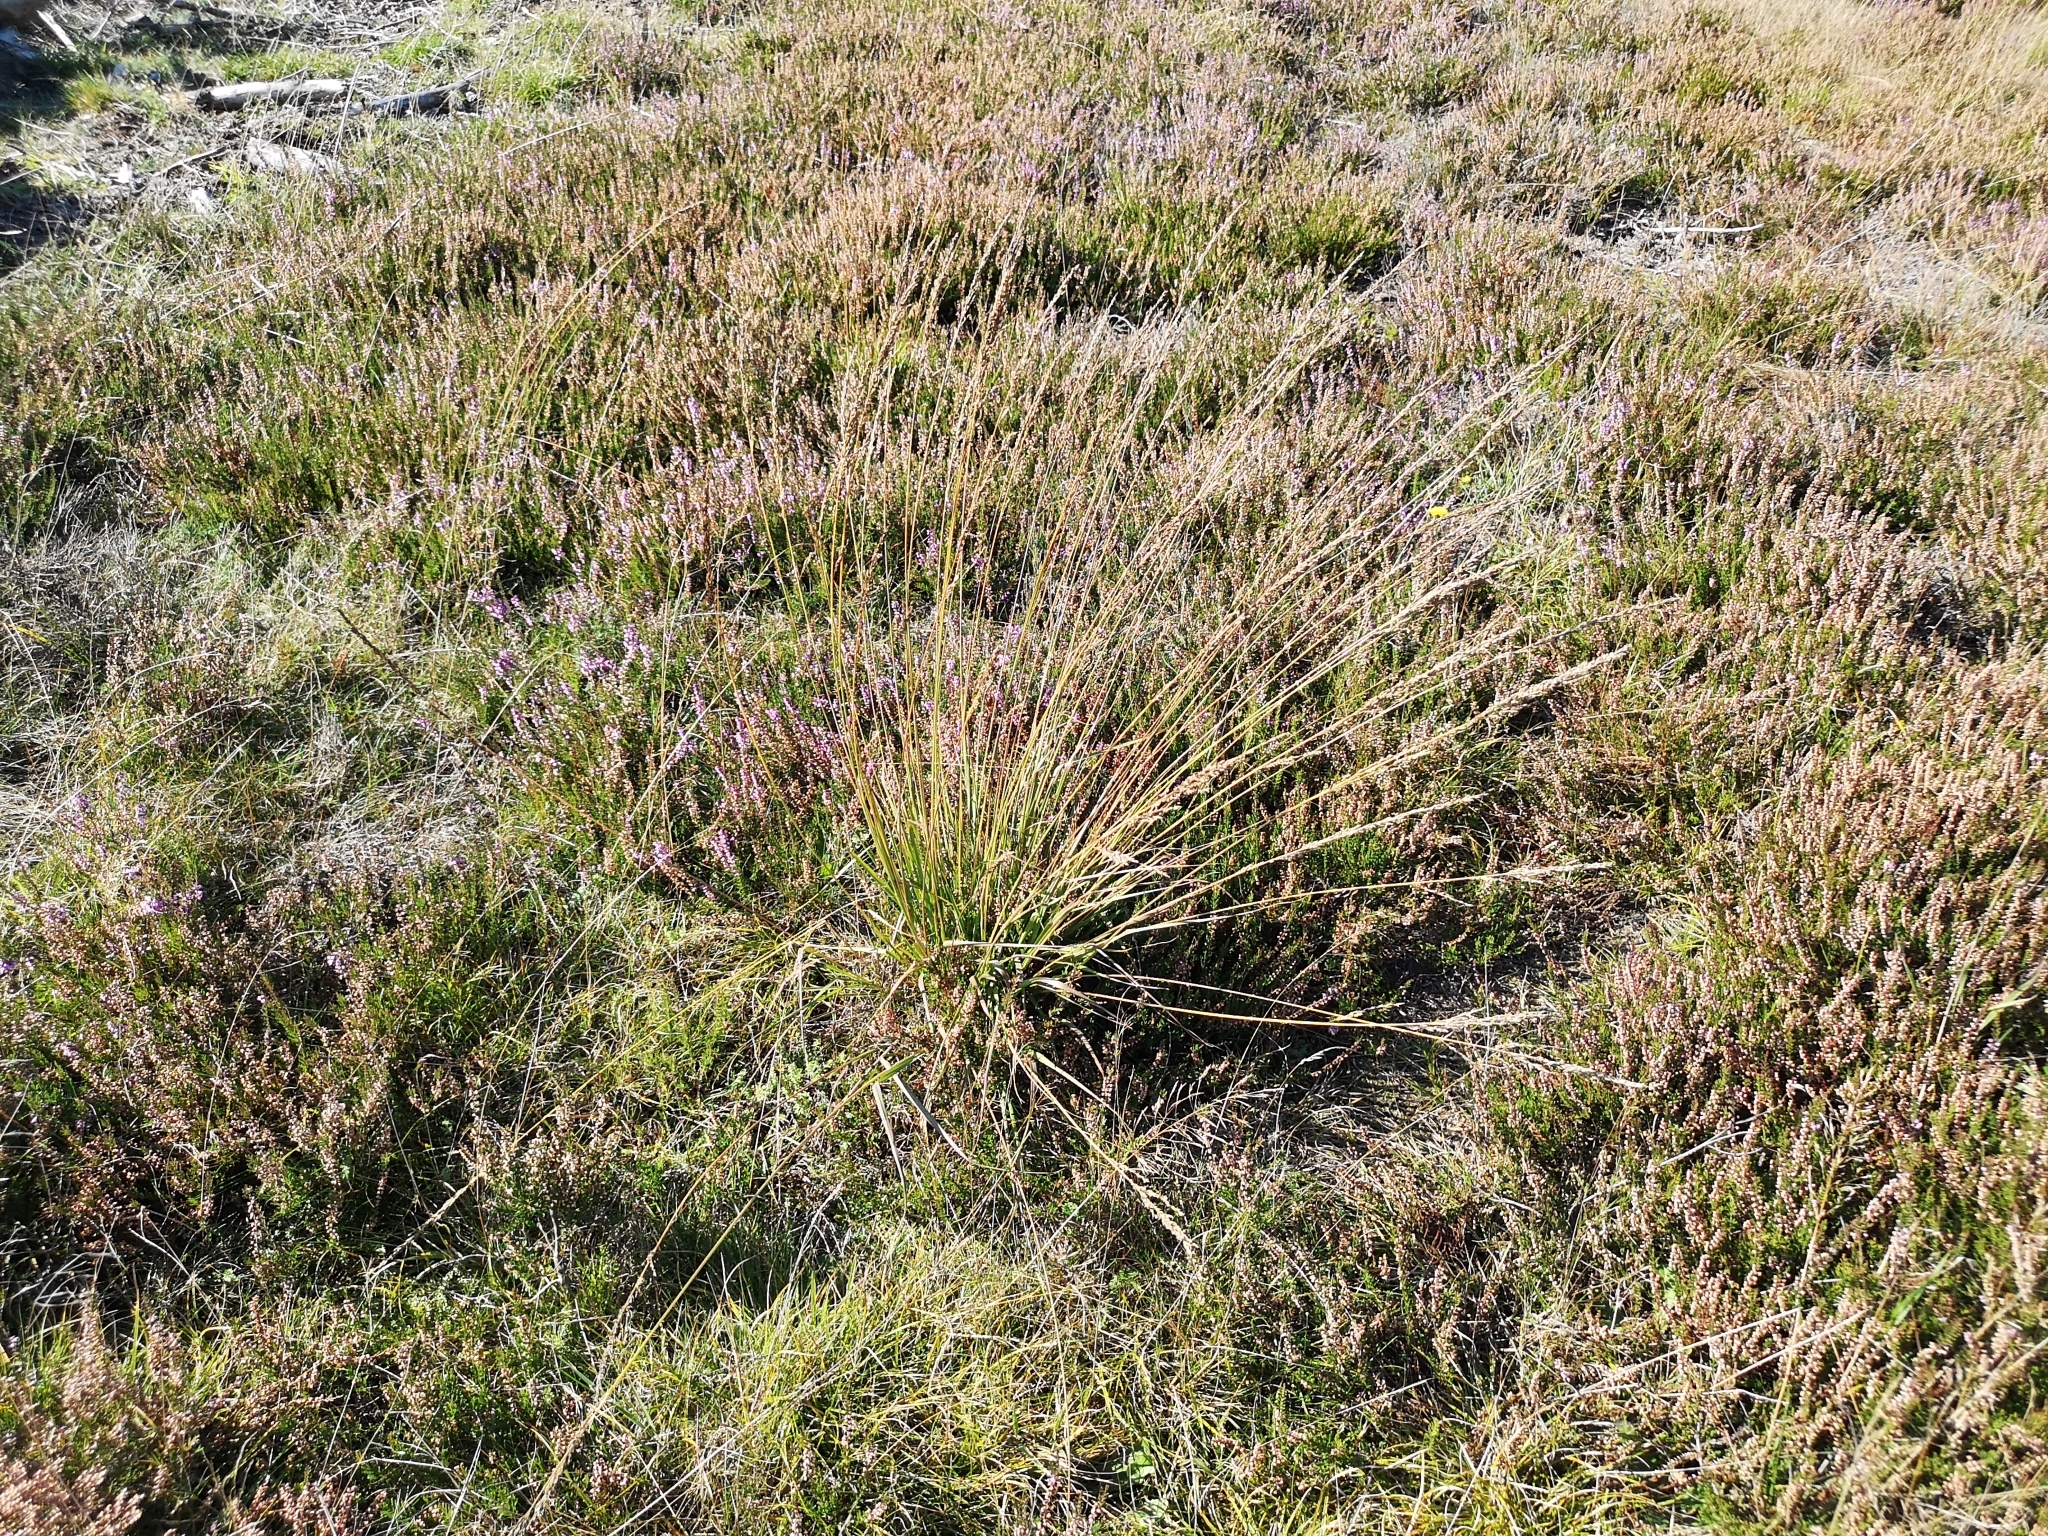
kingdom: Plantae
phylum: Tracheophyta
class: Liliopsida
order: Poales
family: Poaceae
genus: Molinia
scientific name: Molinia caerulea
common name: Purple moor-grass
